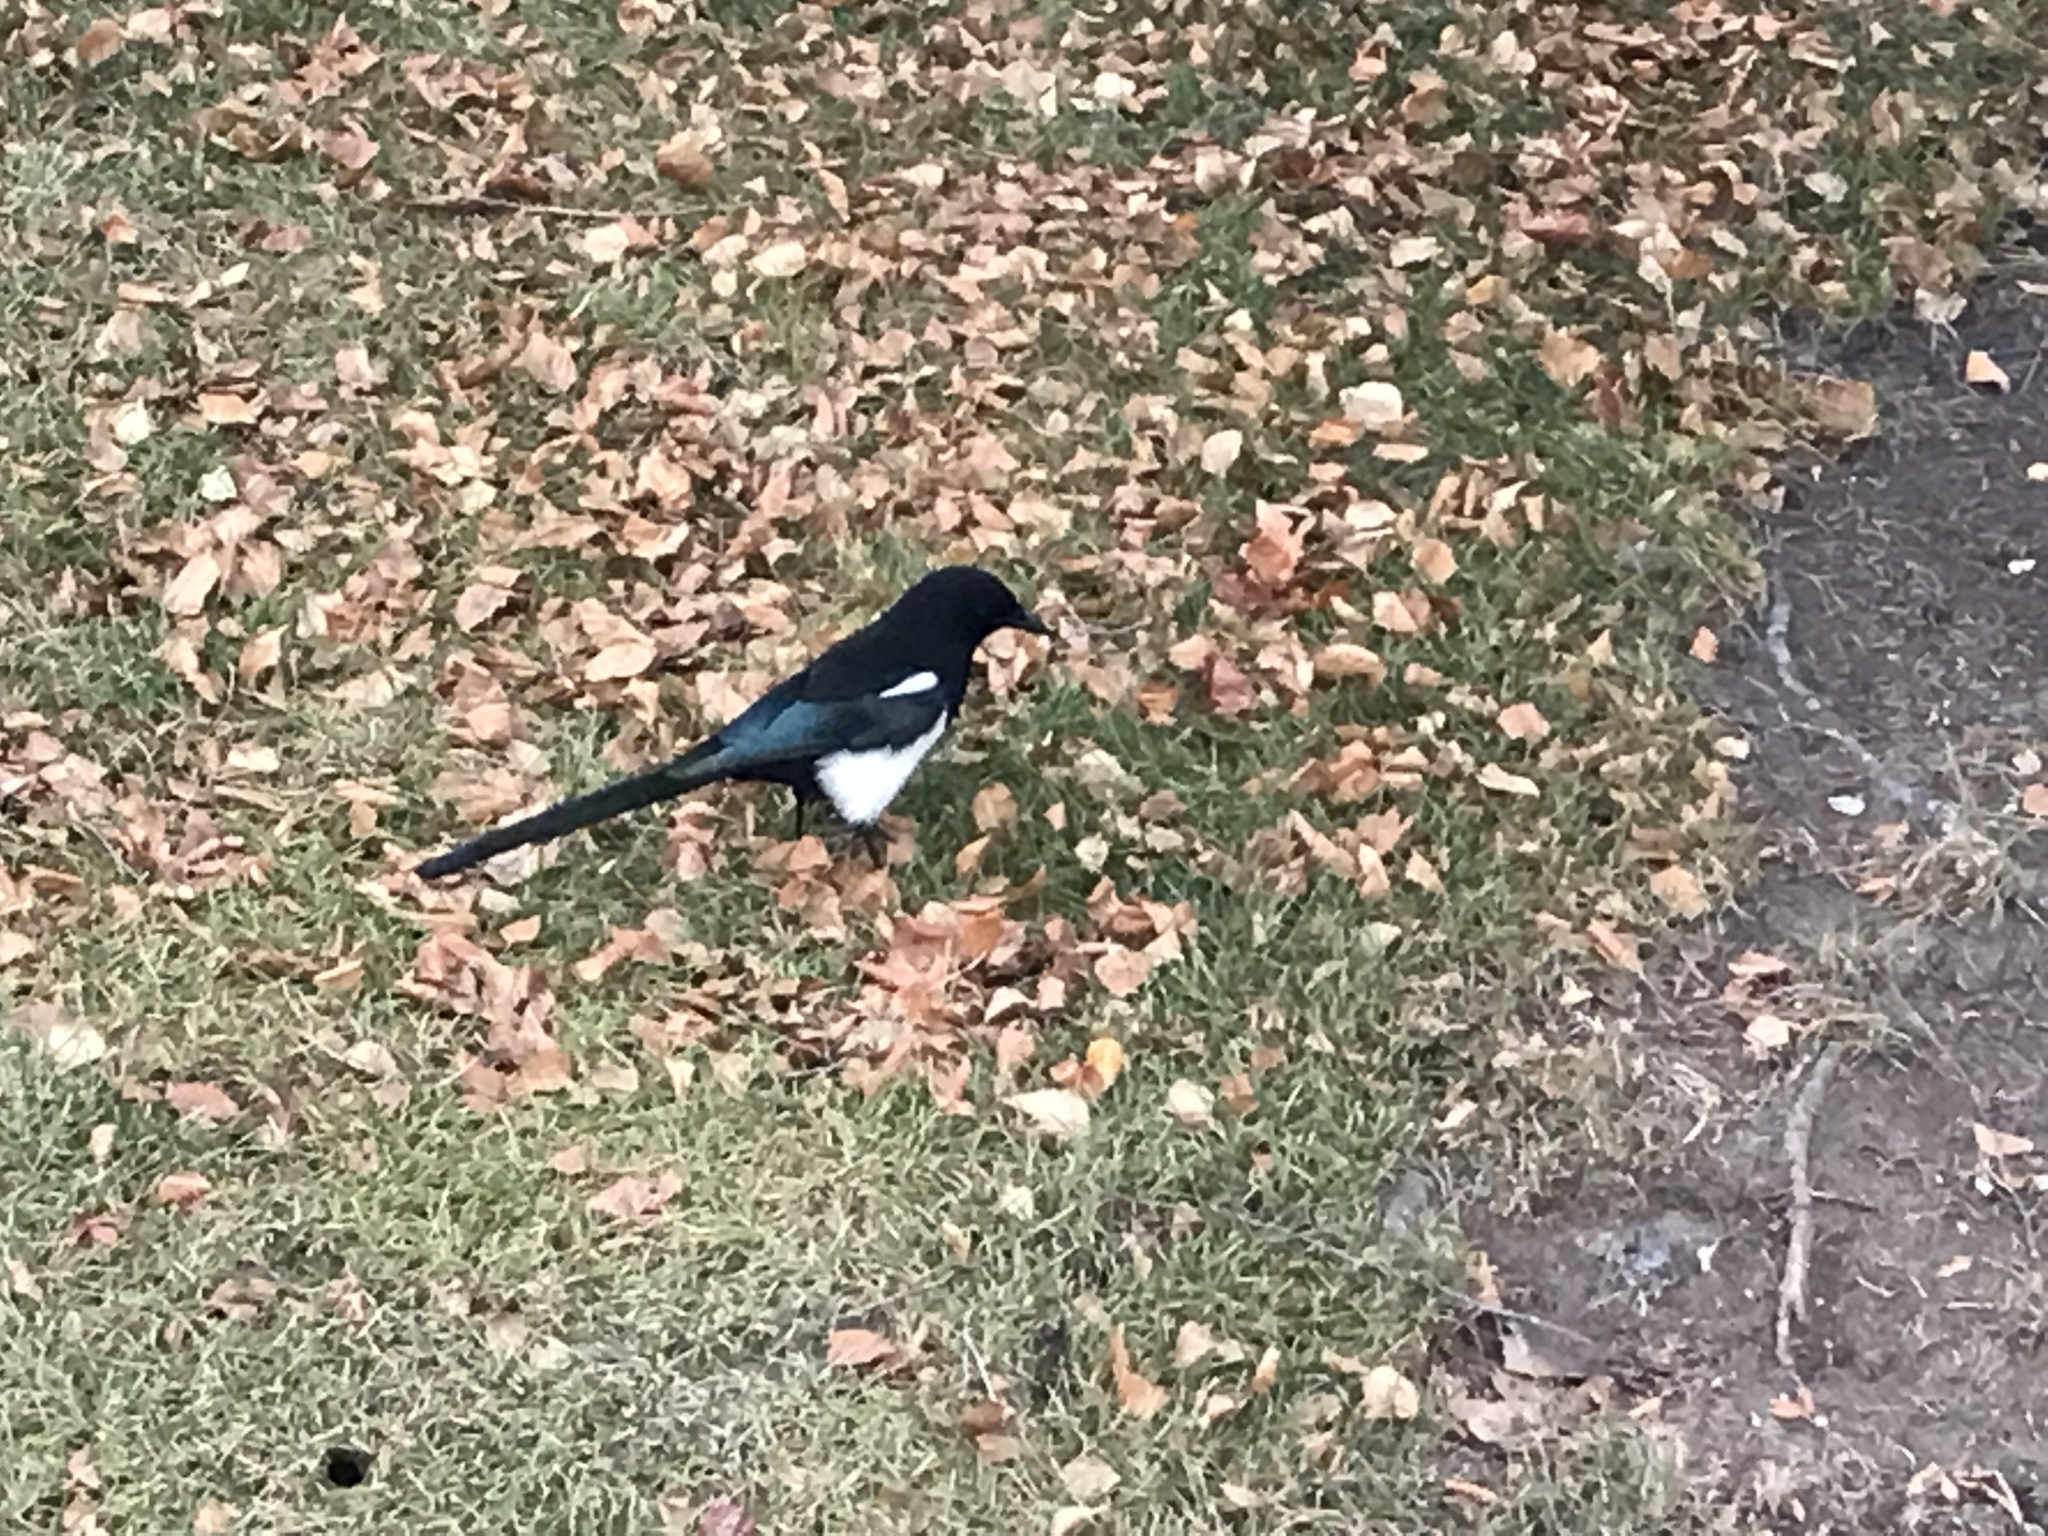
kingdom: Animalia
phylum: Chordata
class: Aves
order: Passeriformes
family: Corvidae
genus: Pica
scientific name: Pica hudsonia
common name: Black-billed magpie
